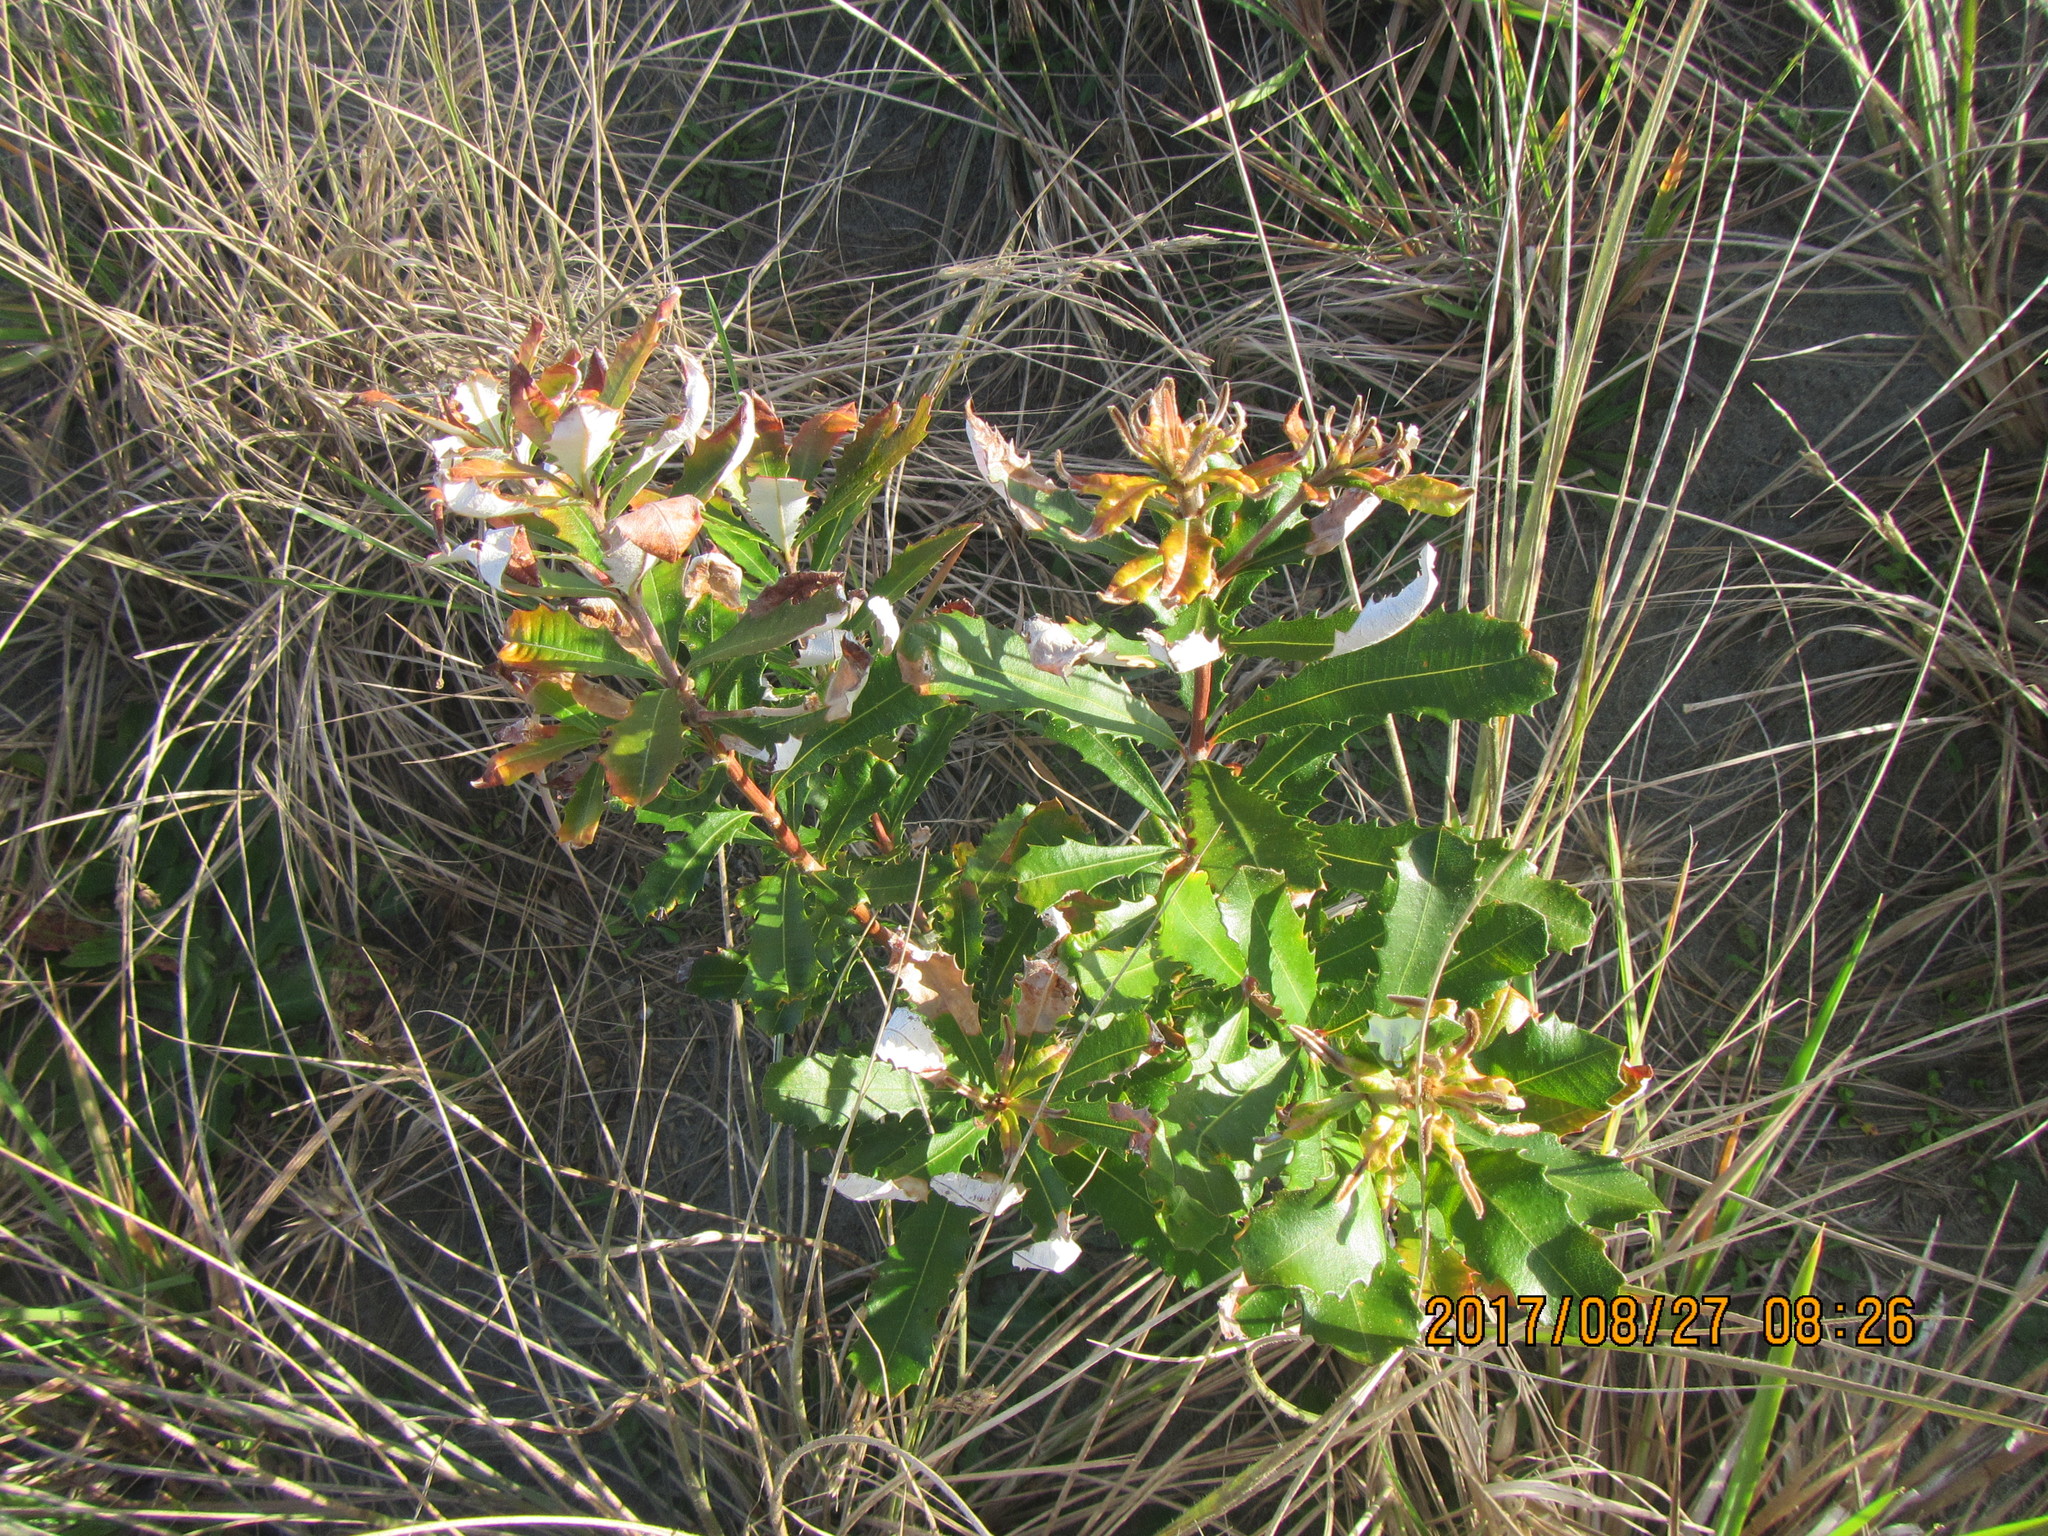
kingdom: Plantae
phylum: Tracheophyta
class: Magnoliopsida
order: Proteales
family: Proteaceae
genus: Banksia
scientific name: Banksia integrifolia
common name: White-honeysuckle
